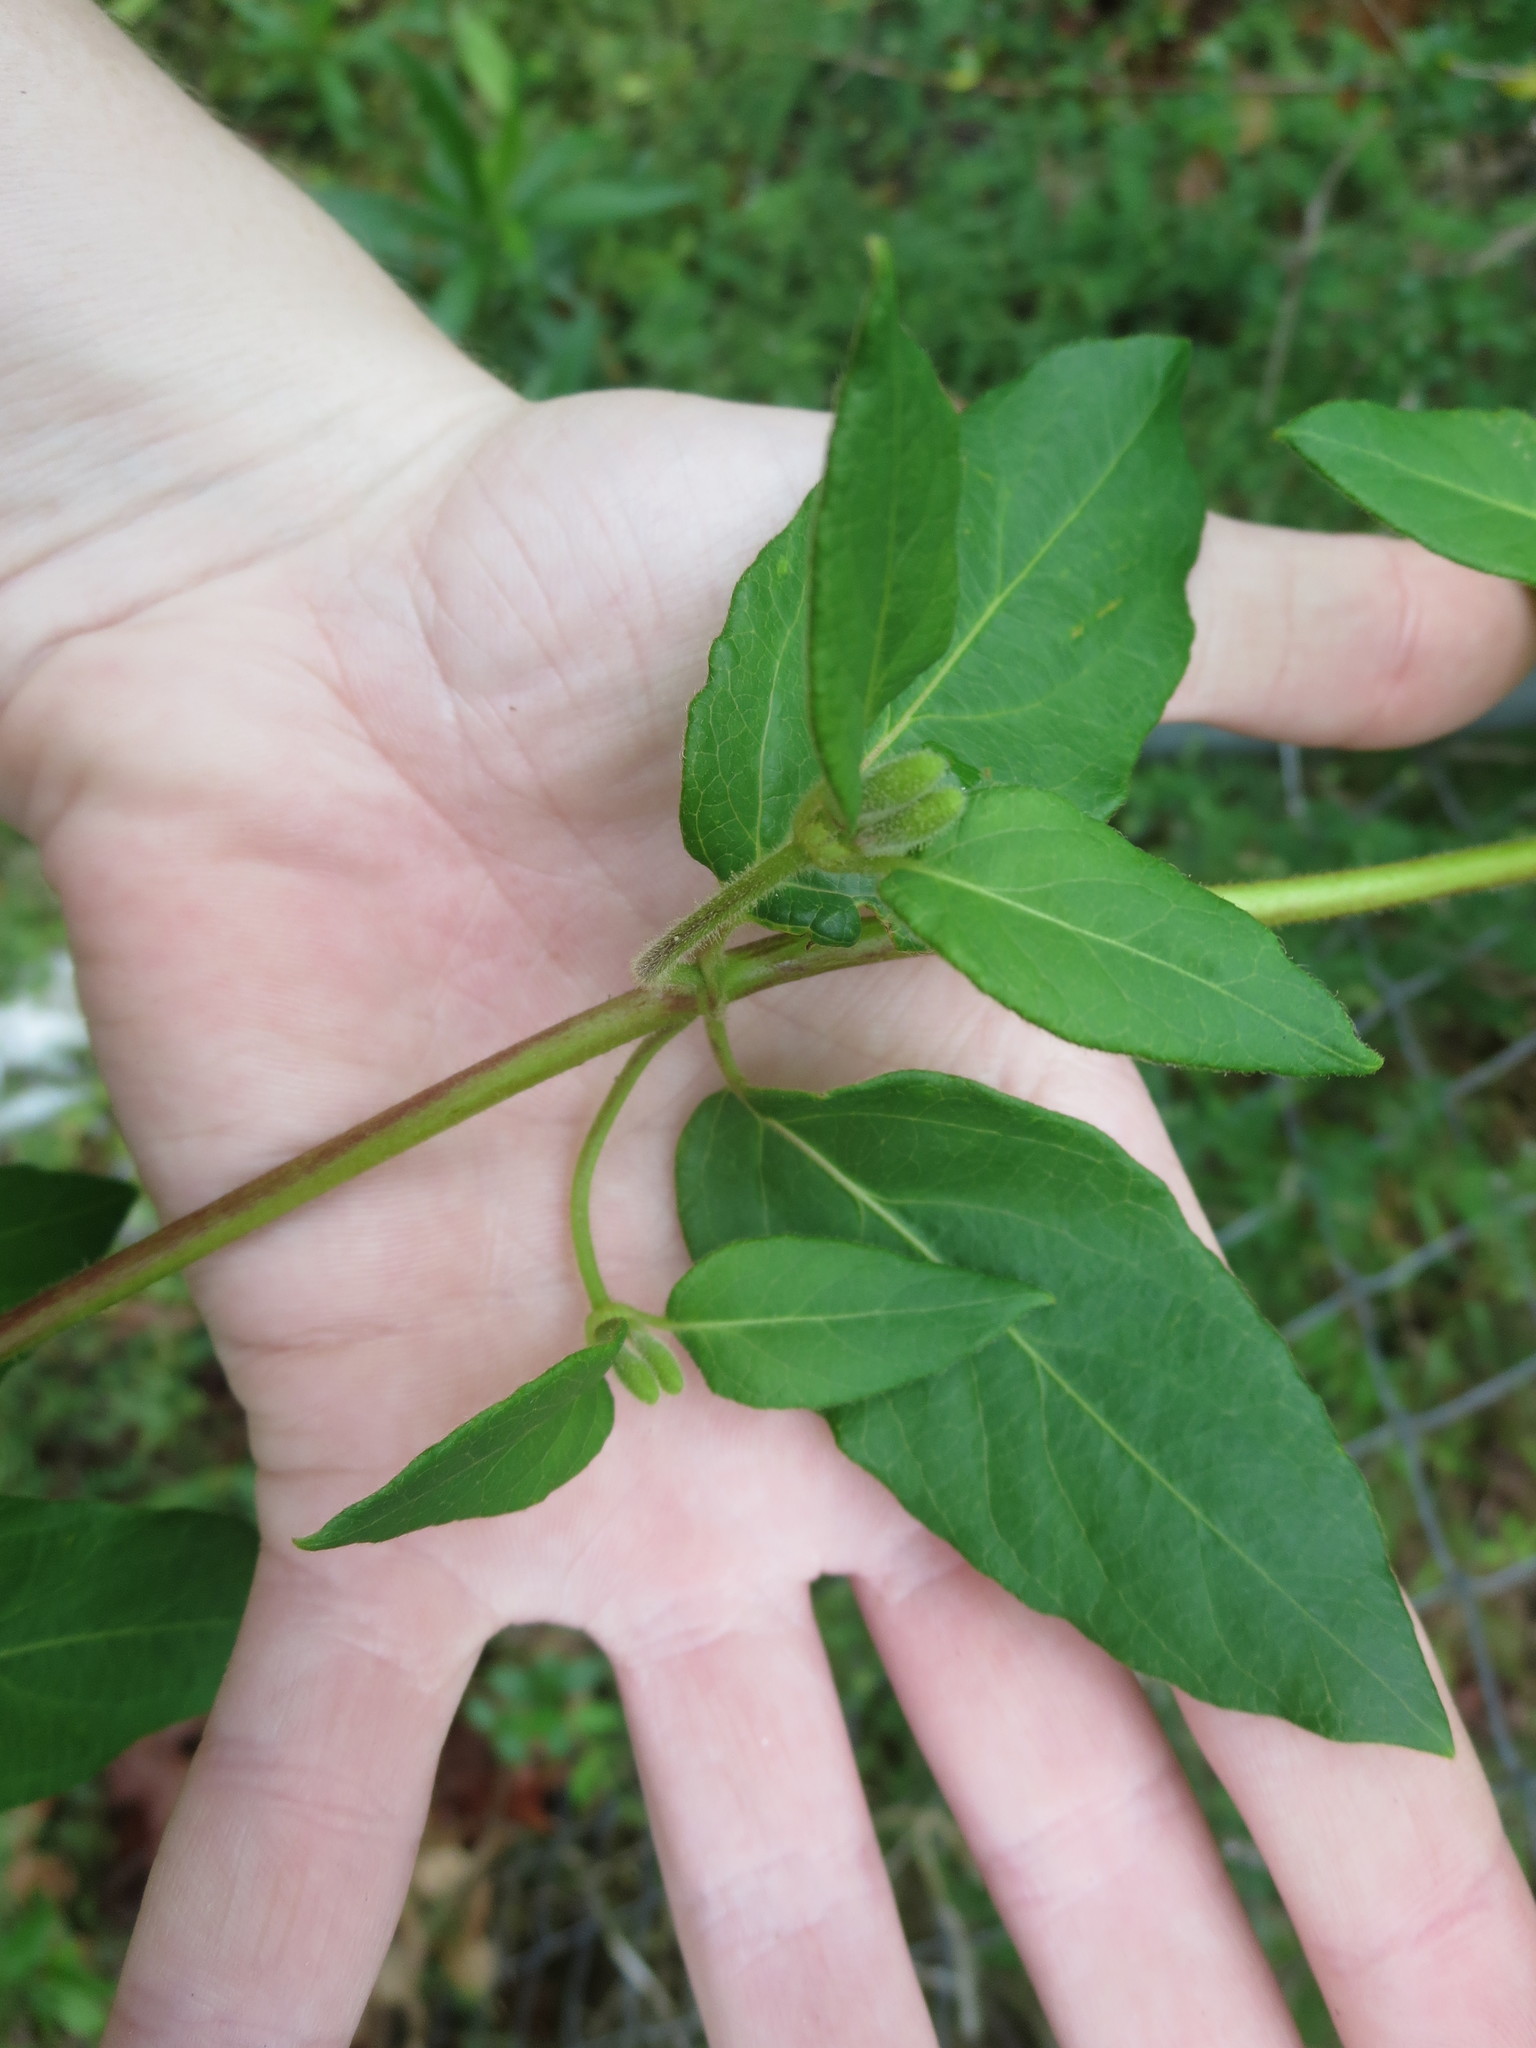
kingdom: Plantae
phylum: Tracheophyta
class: Magnoliopsida
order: Dipsacales
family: Caprifoliaceae
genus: Lonicera
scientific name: Lonicera japonica
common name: Japanese honeysuckle
